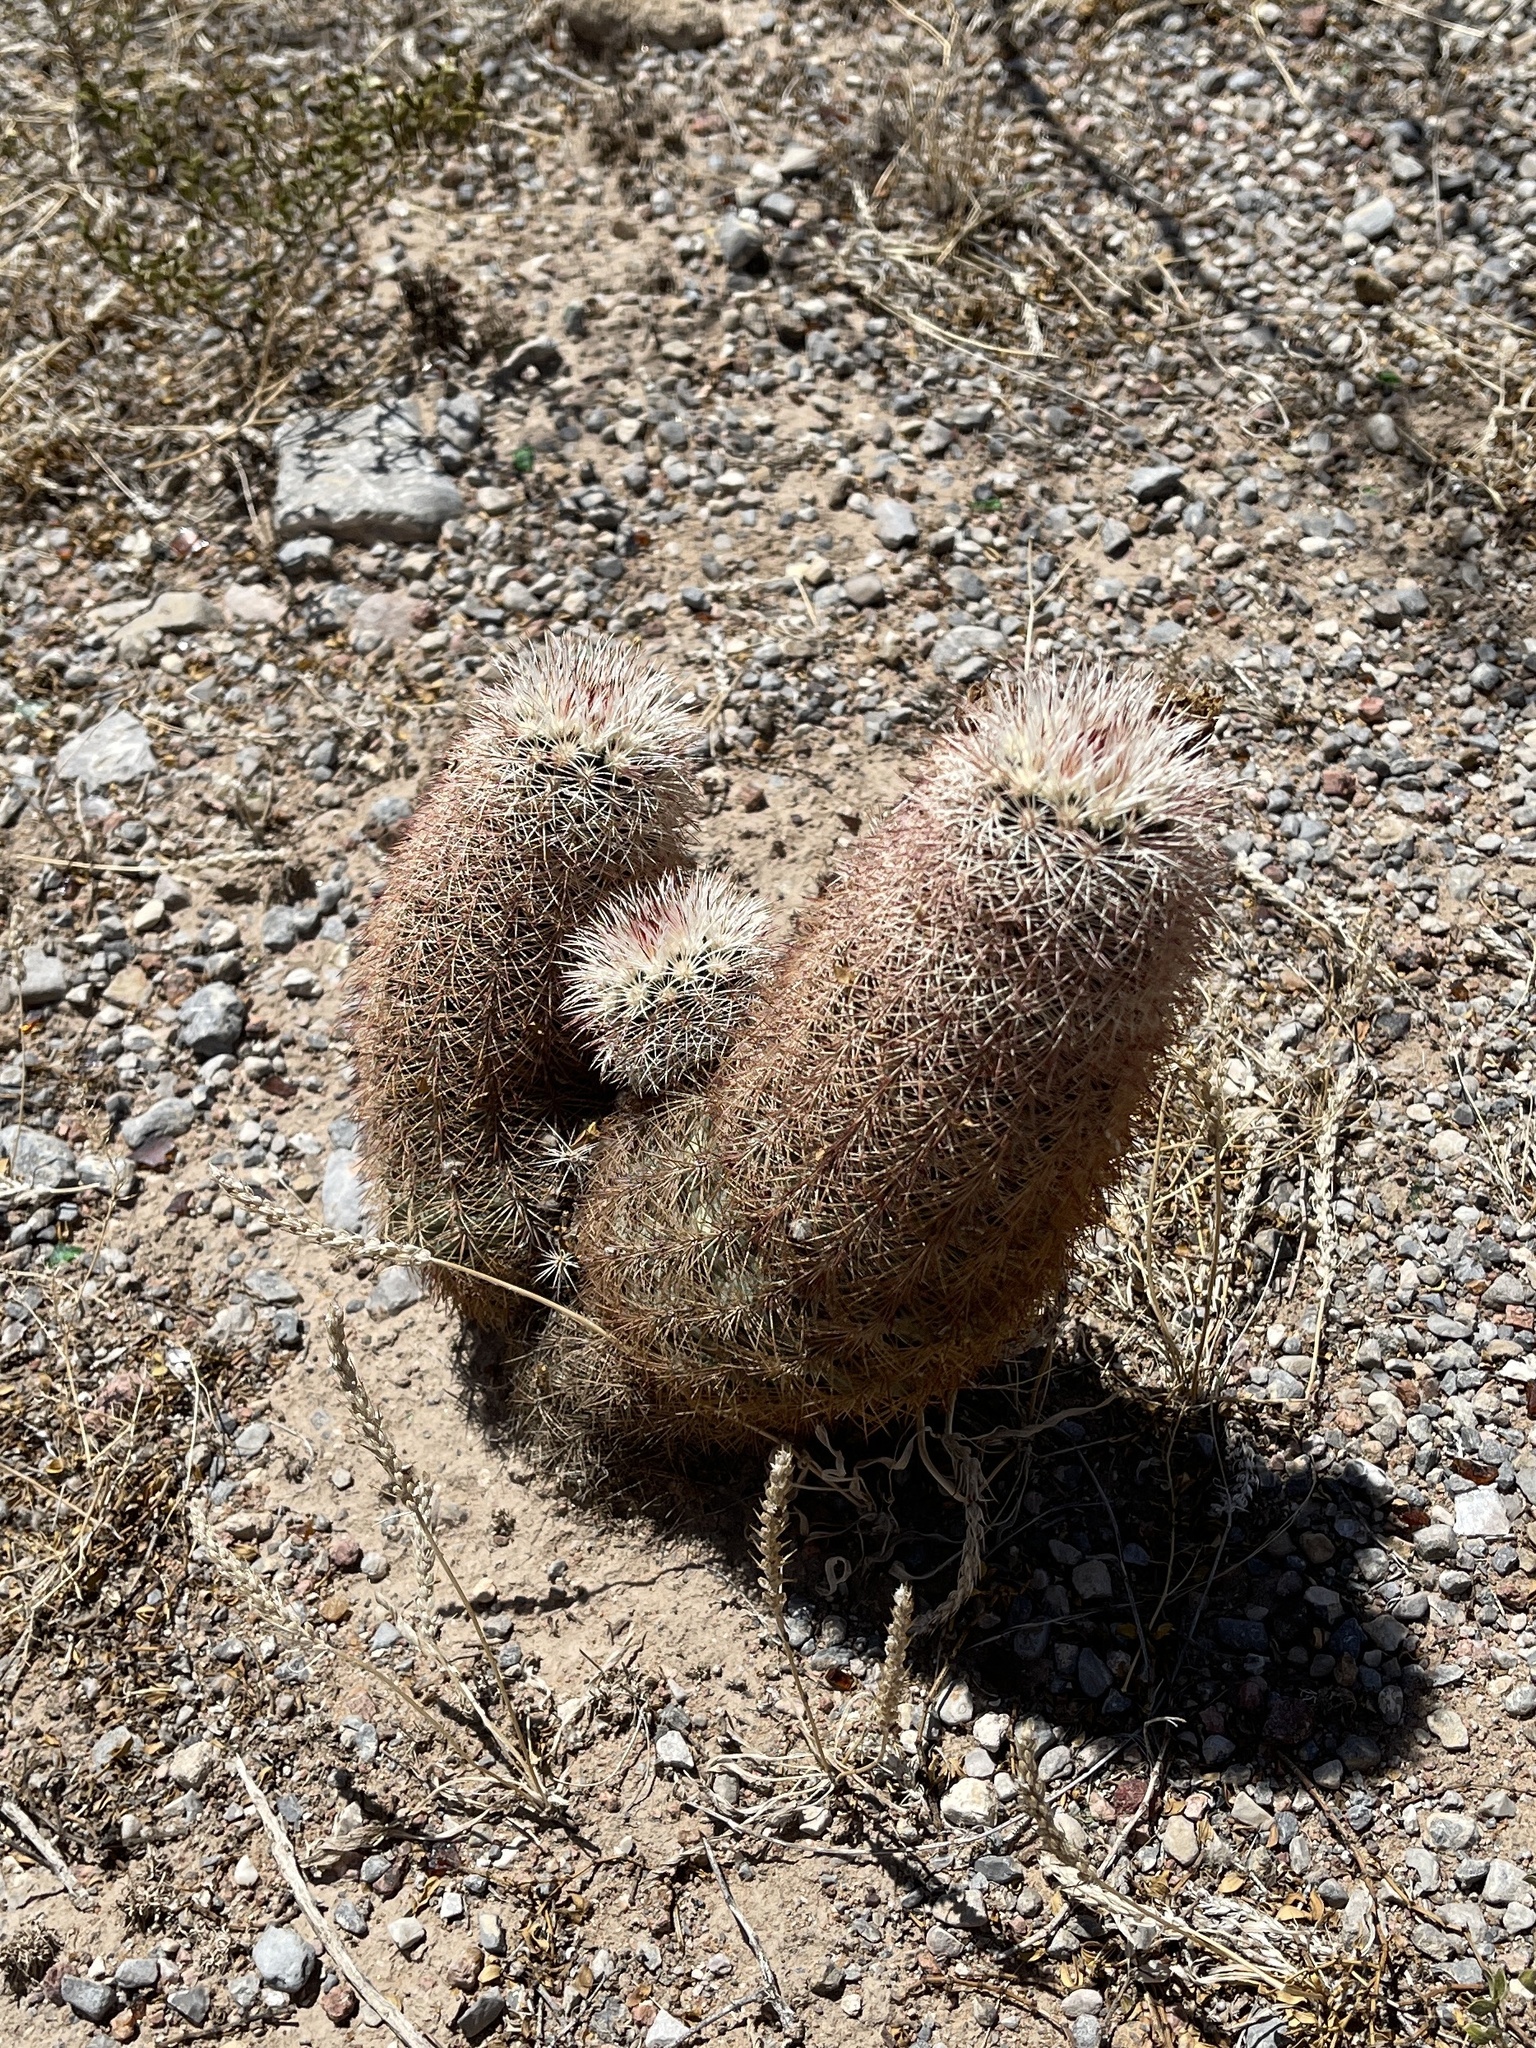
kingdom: Plantae
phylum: Tracheophyta
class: Magnoliopsida
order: Caryophyllales
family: Cactaceae
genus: Echinocereus
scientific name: Echinocereus dasyacanthus
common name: Spiny hedgehog cactus
